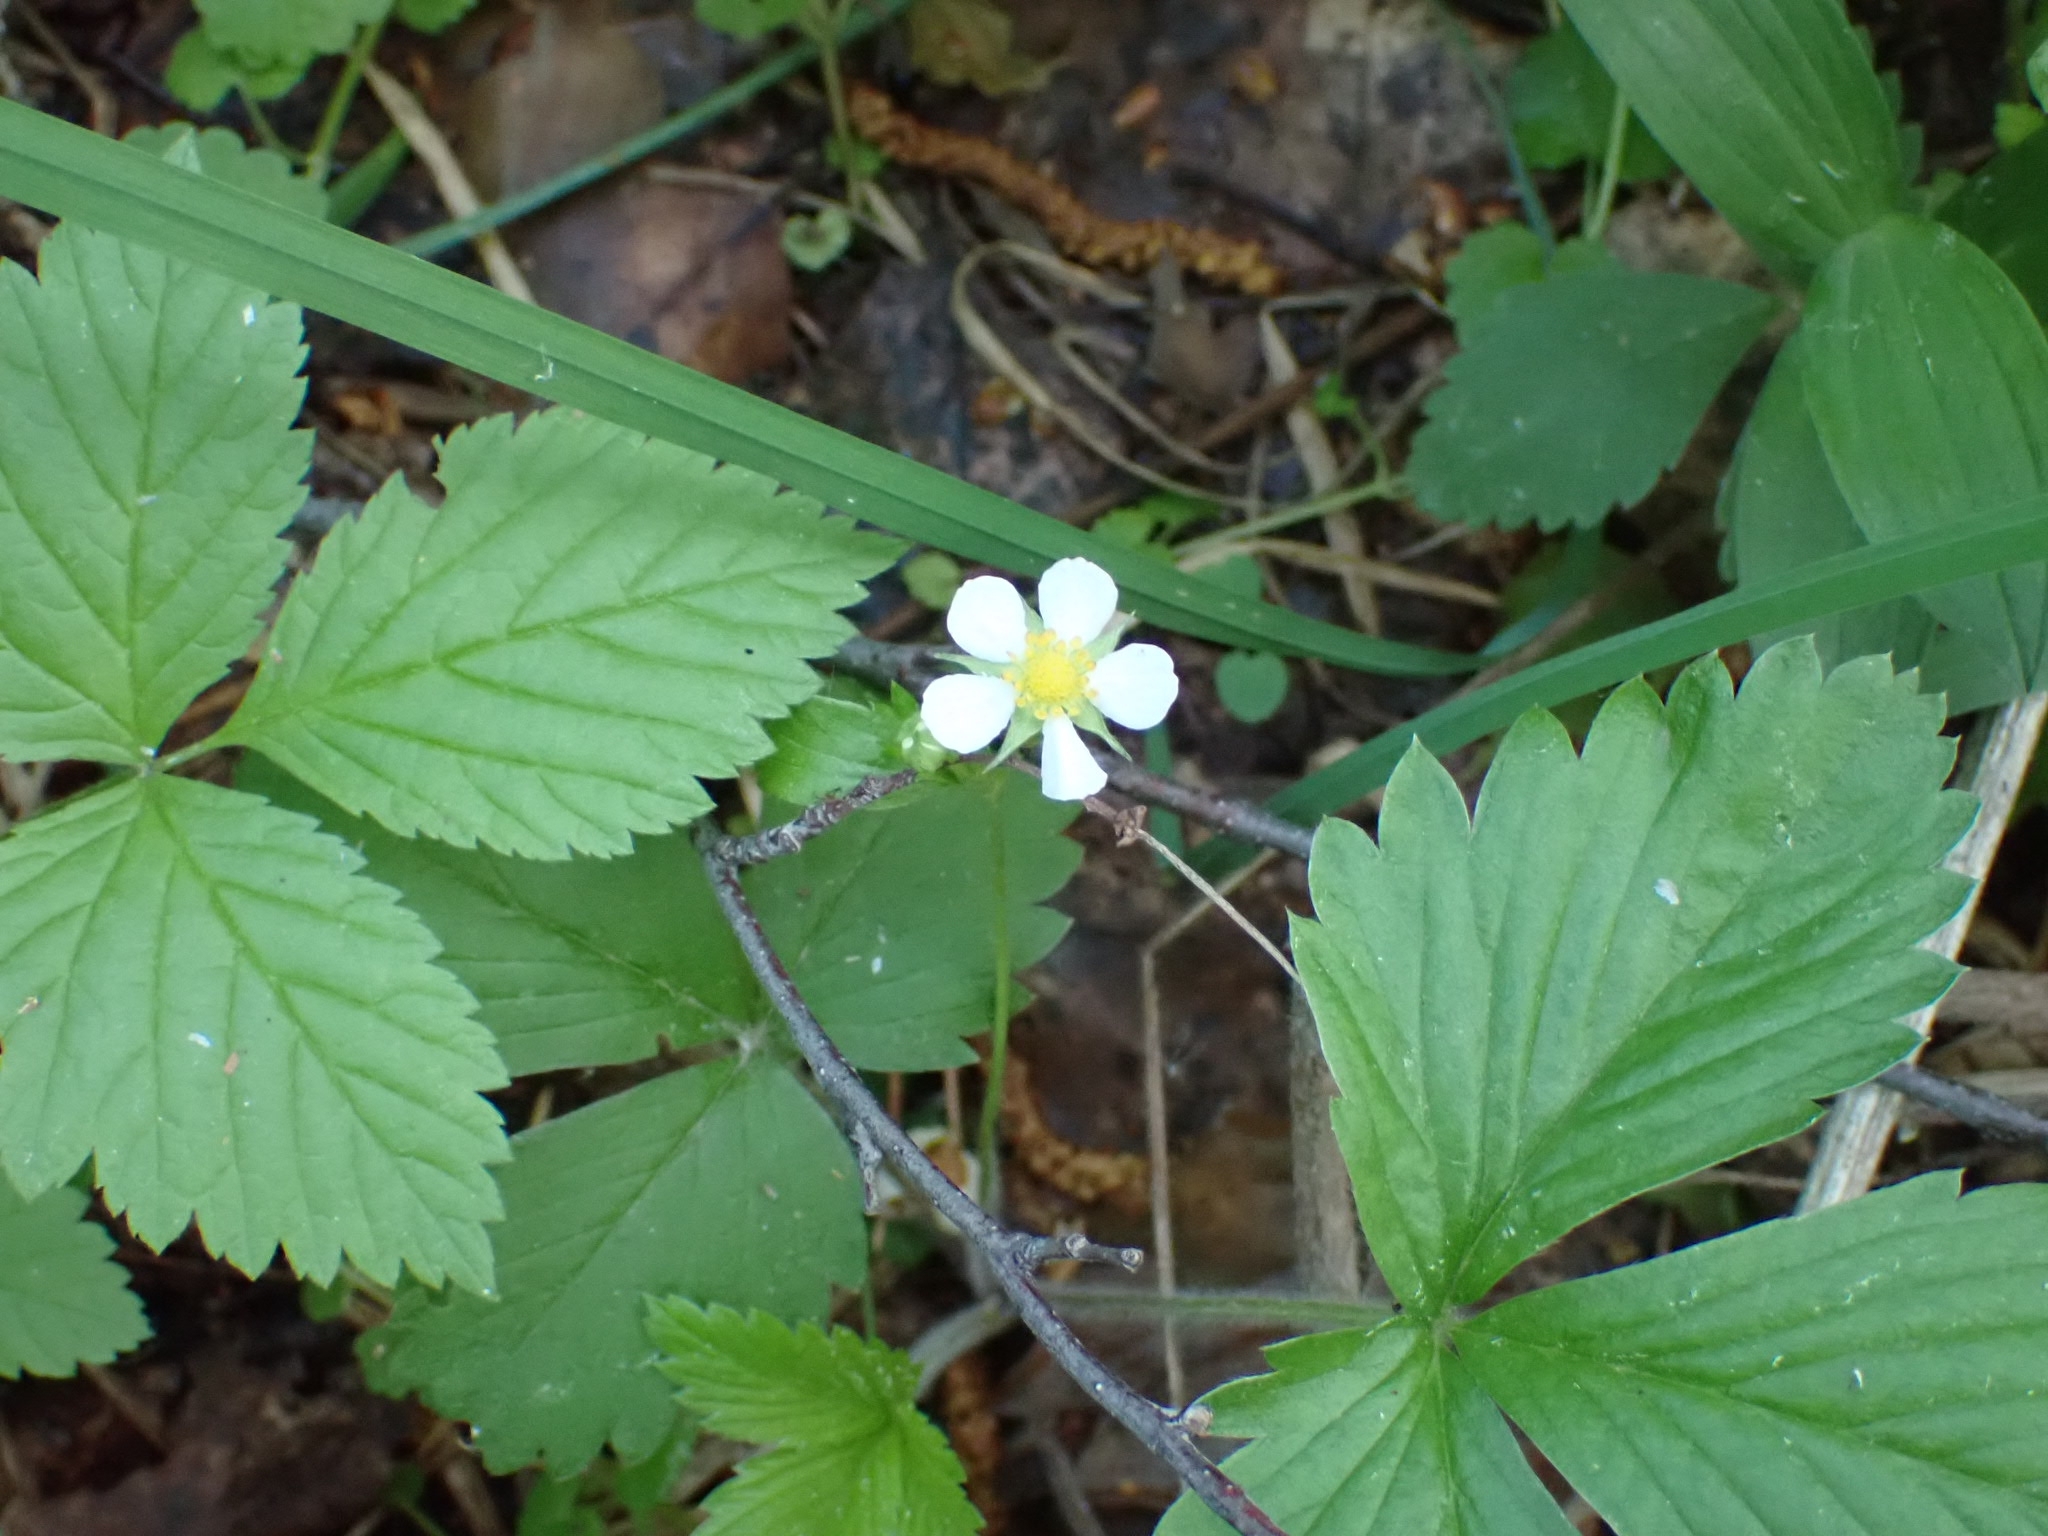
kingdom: Plantae
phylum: Tracheophyta
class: Magnoliopsida
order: Rosales
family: Rosaceae
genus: Fragaria
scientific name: Fragaria vesca
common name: Wild strawberry
